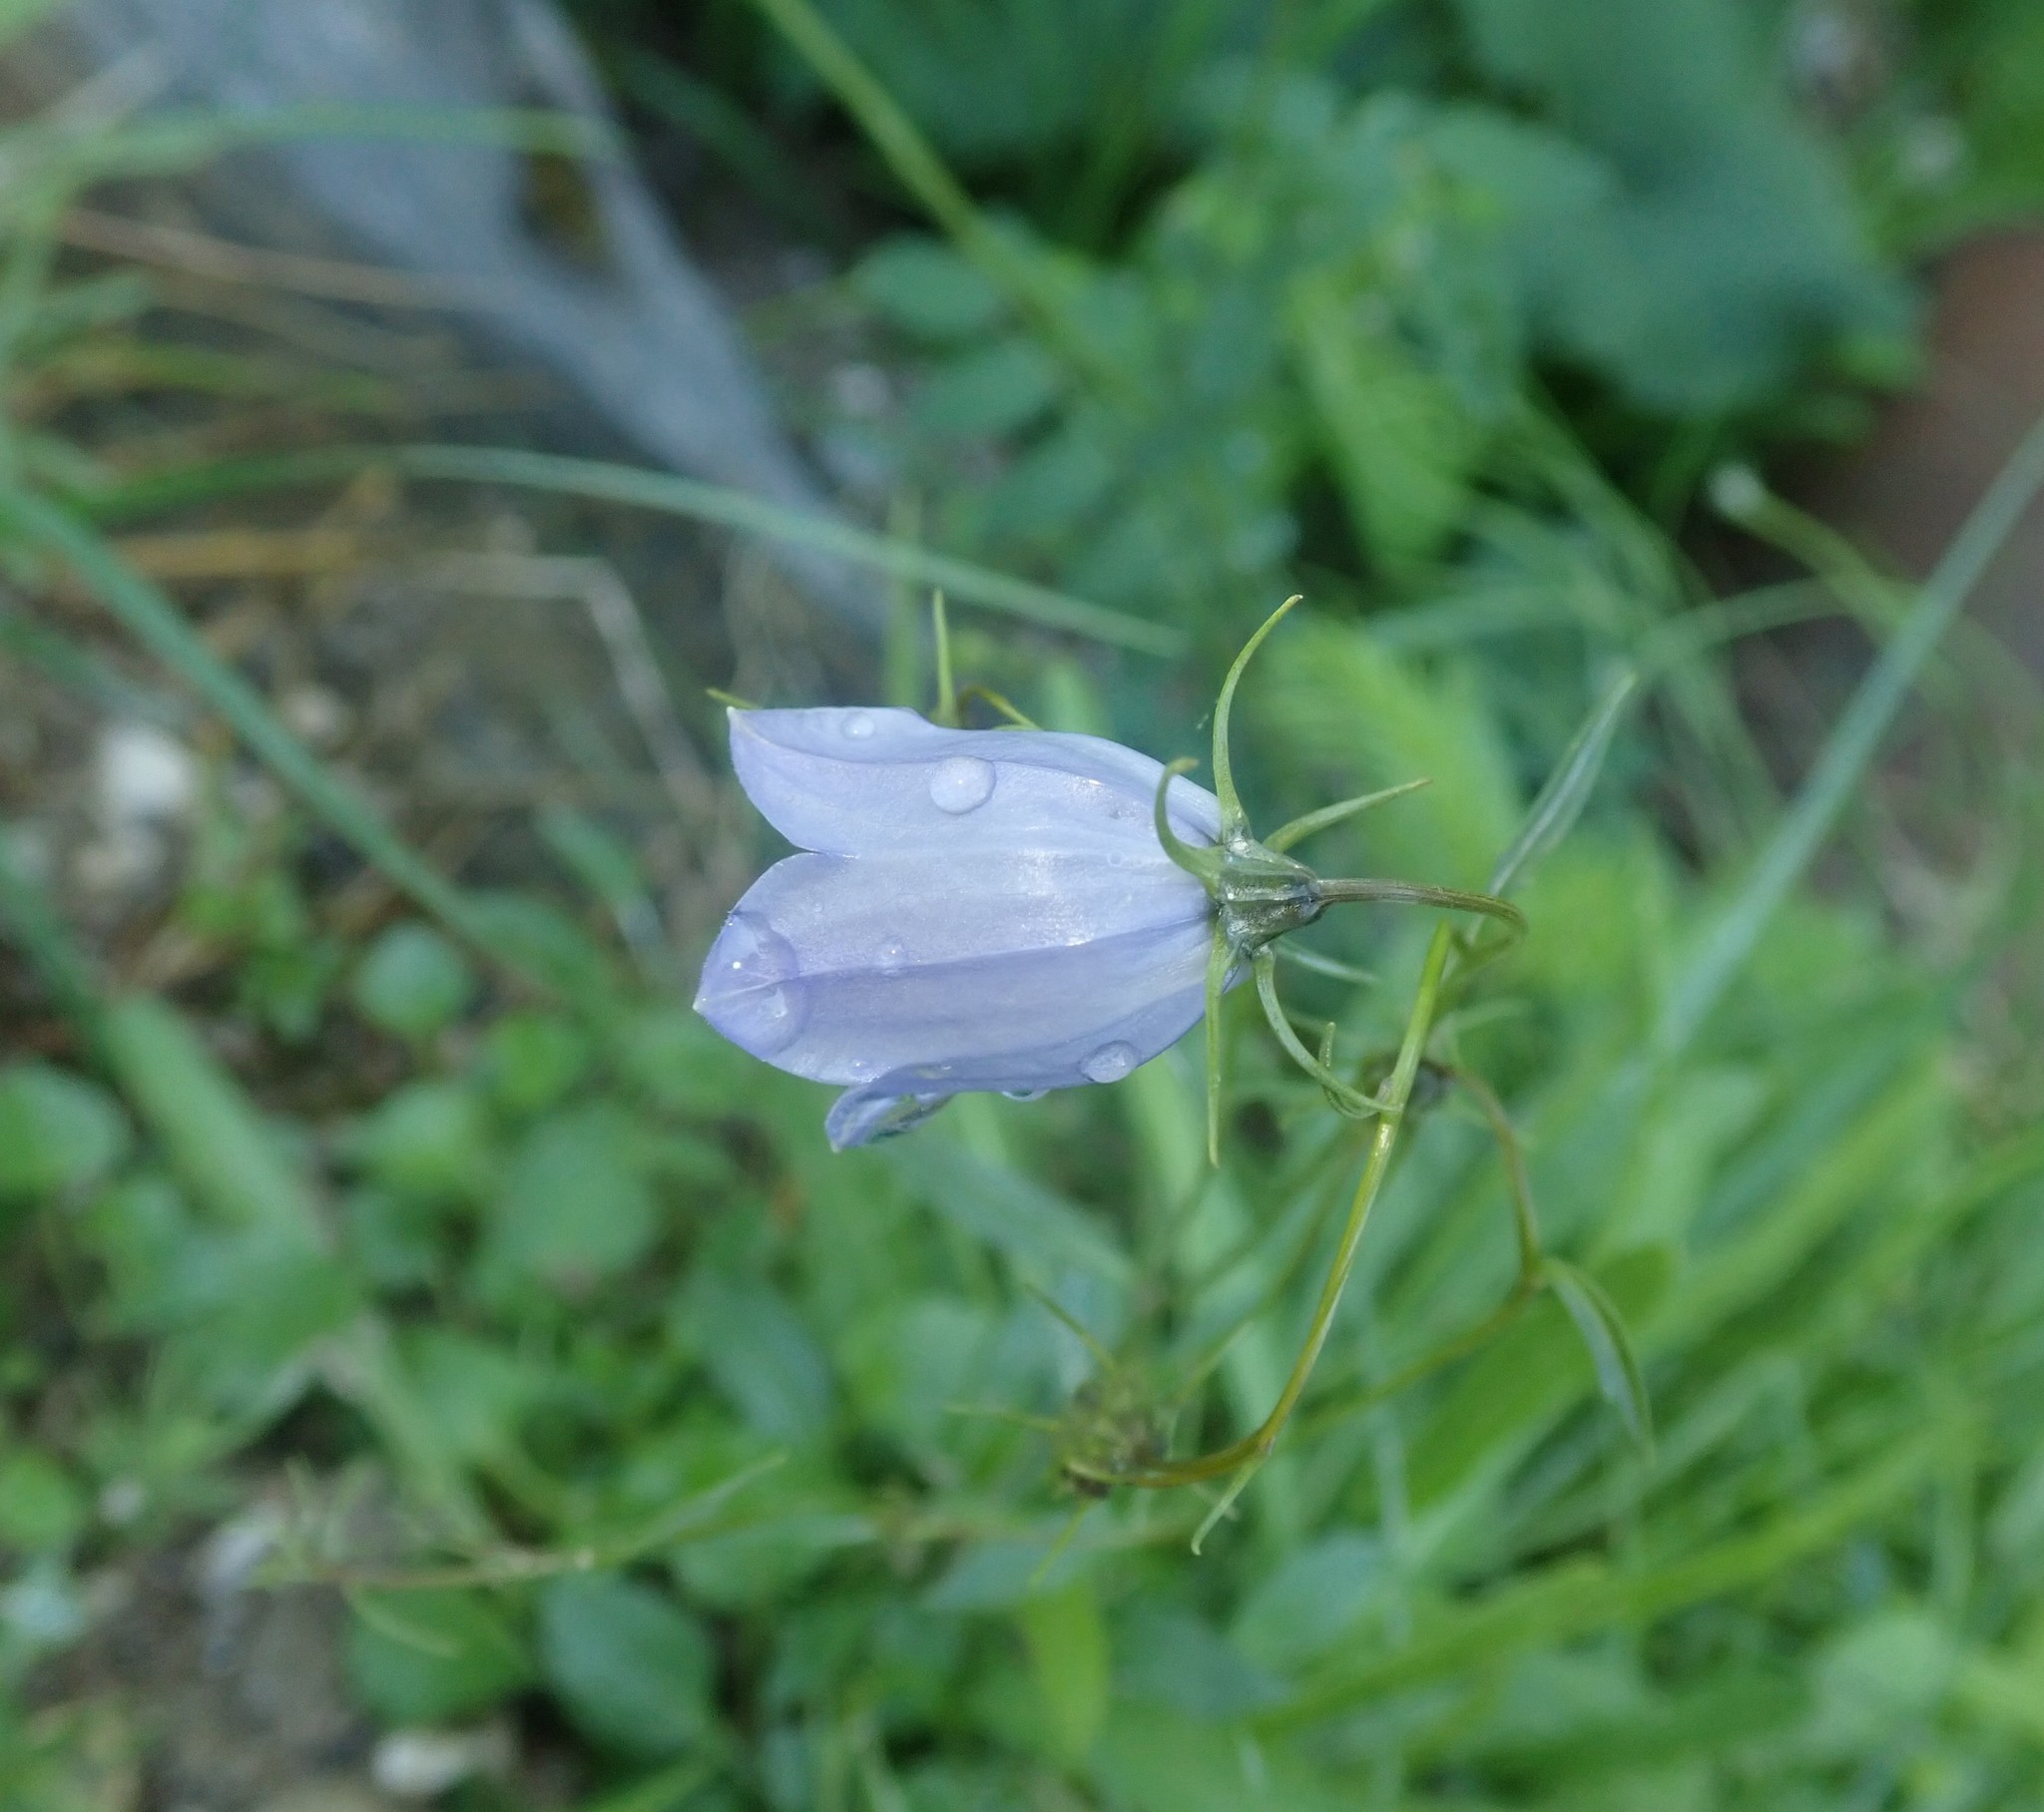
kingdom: Plantae
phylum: Tracheophyta
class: Magnoliopsida
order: Asterales
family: Campanulaceae
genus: Campanula
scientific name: Campanula cochleariifolia
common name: Fairies'-thimbles
